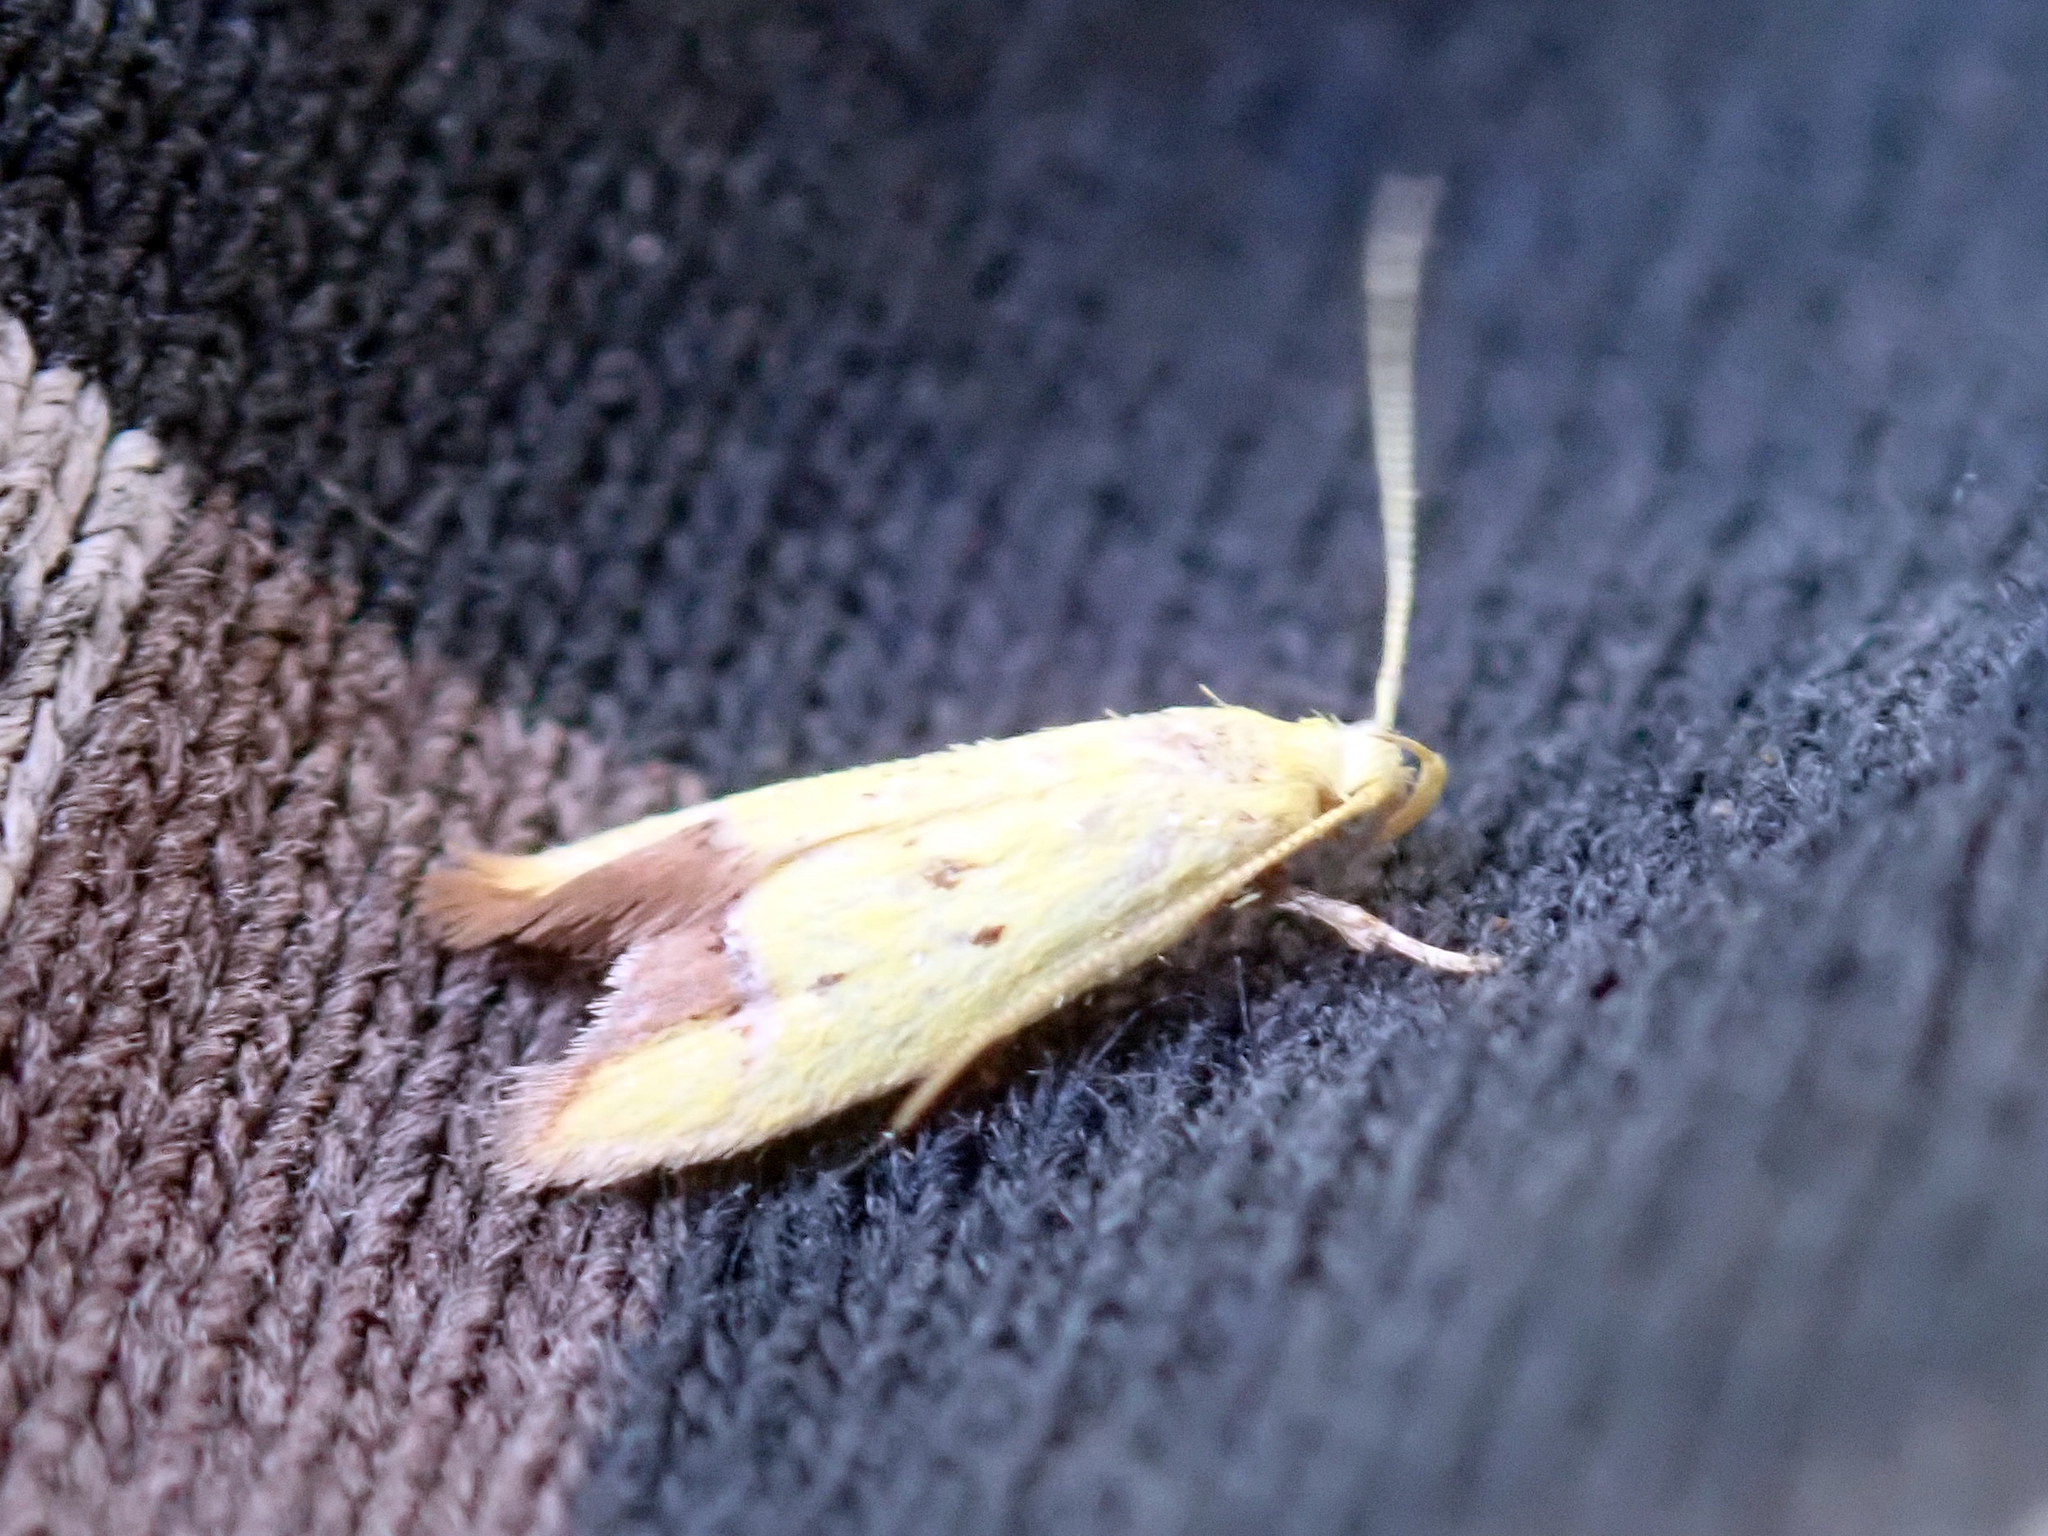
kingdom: Animalia
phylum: Arthropoda
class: Insecta
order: Lepidoptera
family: Oecophoridae
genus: Gymnobathra
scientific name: Gymnobathra flavidella
